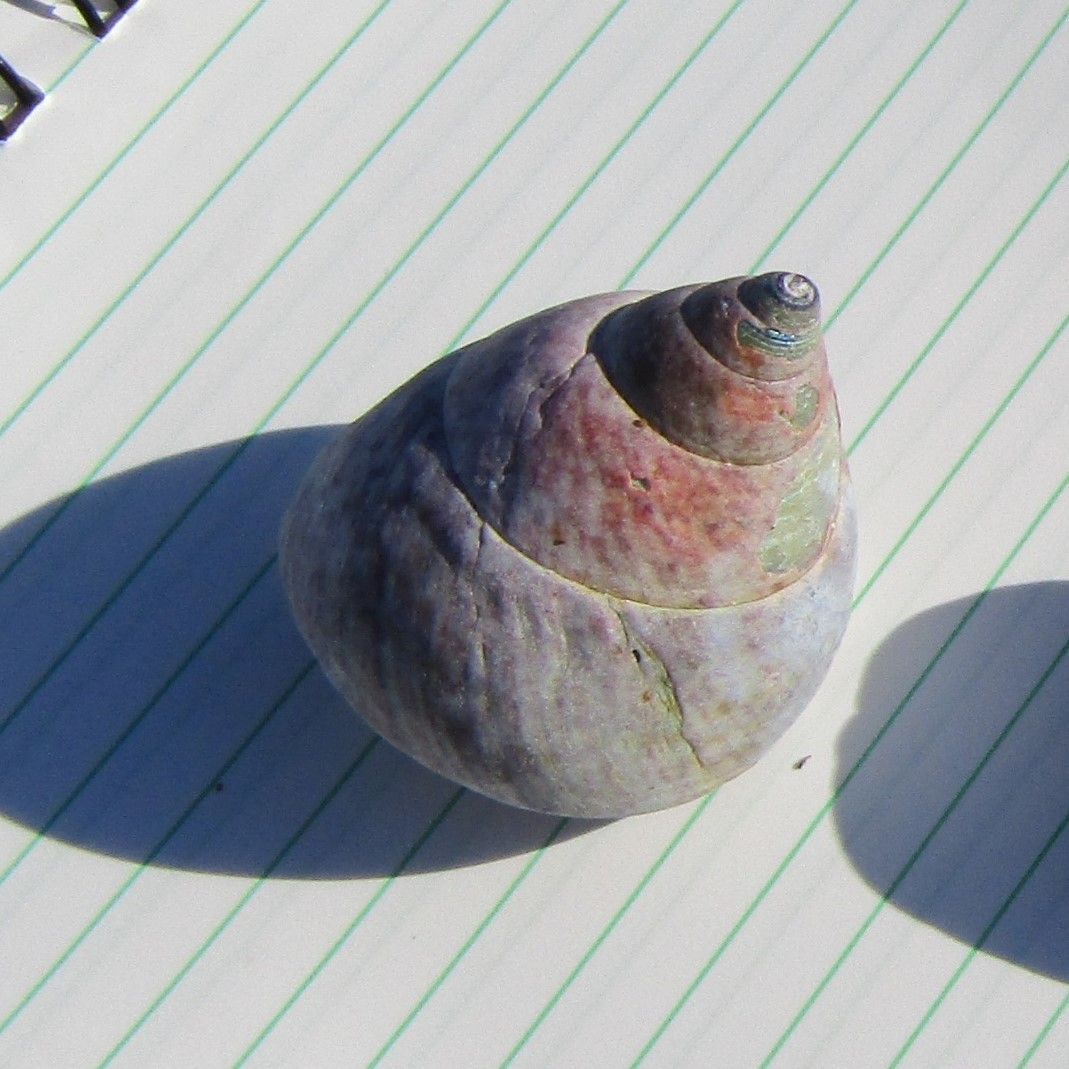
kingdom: Animalia
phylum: Mollusca
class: Gastropoda
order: Trochida
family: Trochidae
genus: Cantharidus
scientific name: Cantharidus opalus
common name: Opal jewel topsnail
